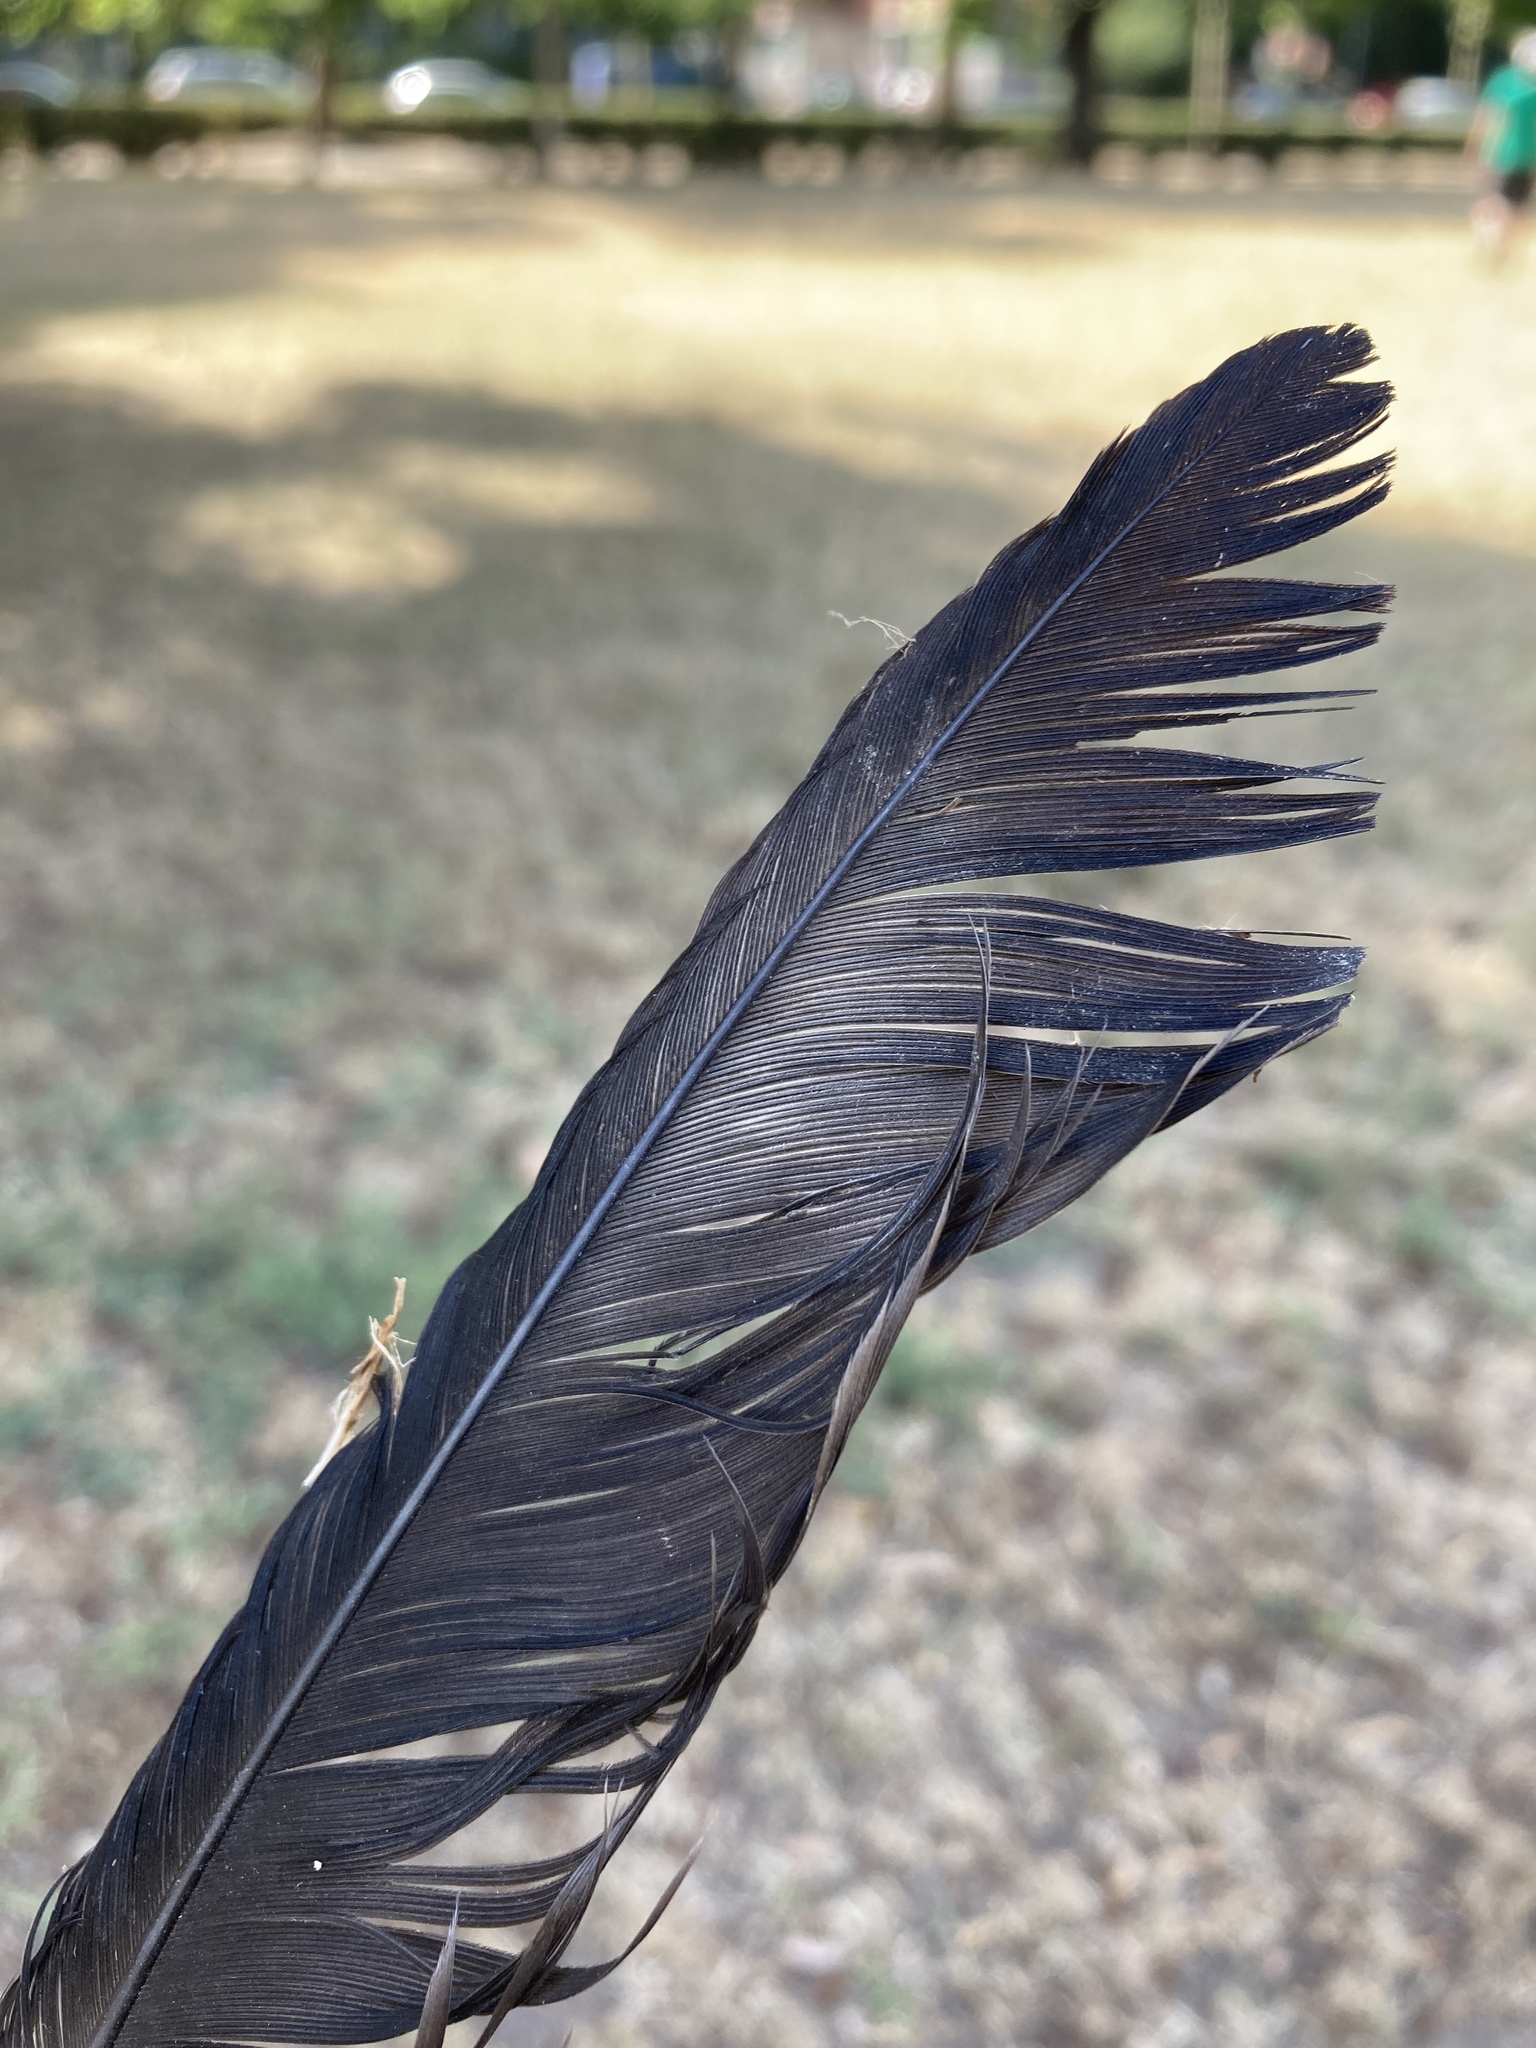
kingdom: Animalia
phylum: Chordata
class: Aves
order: Passeriformes
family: Corvidae
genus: Corvus
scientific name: Corvus cornix
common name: Hooded crow
